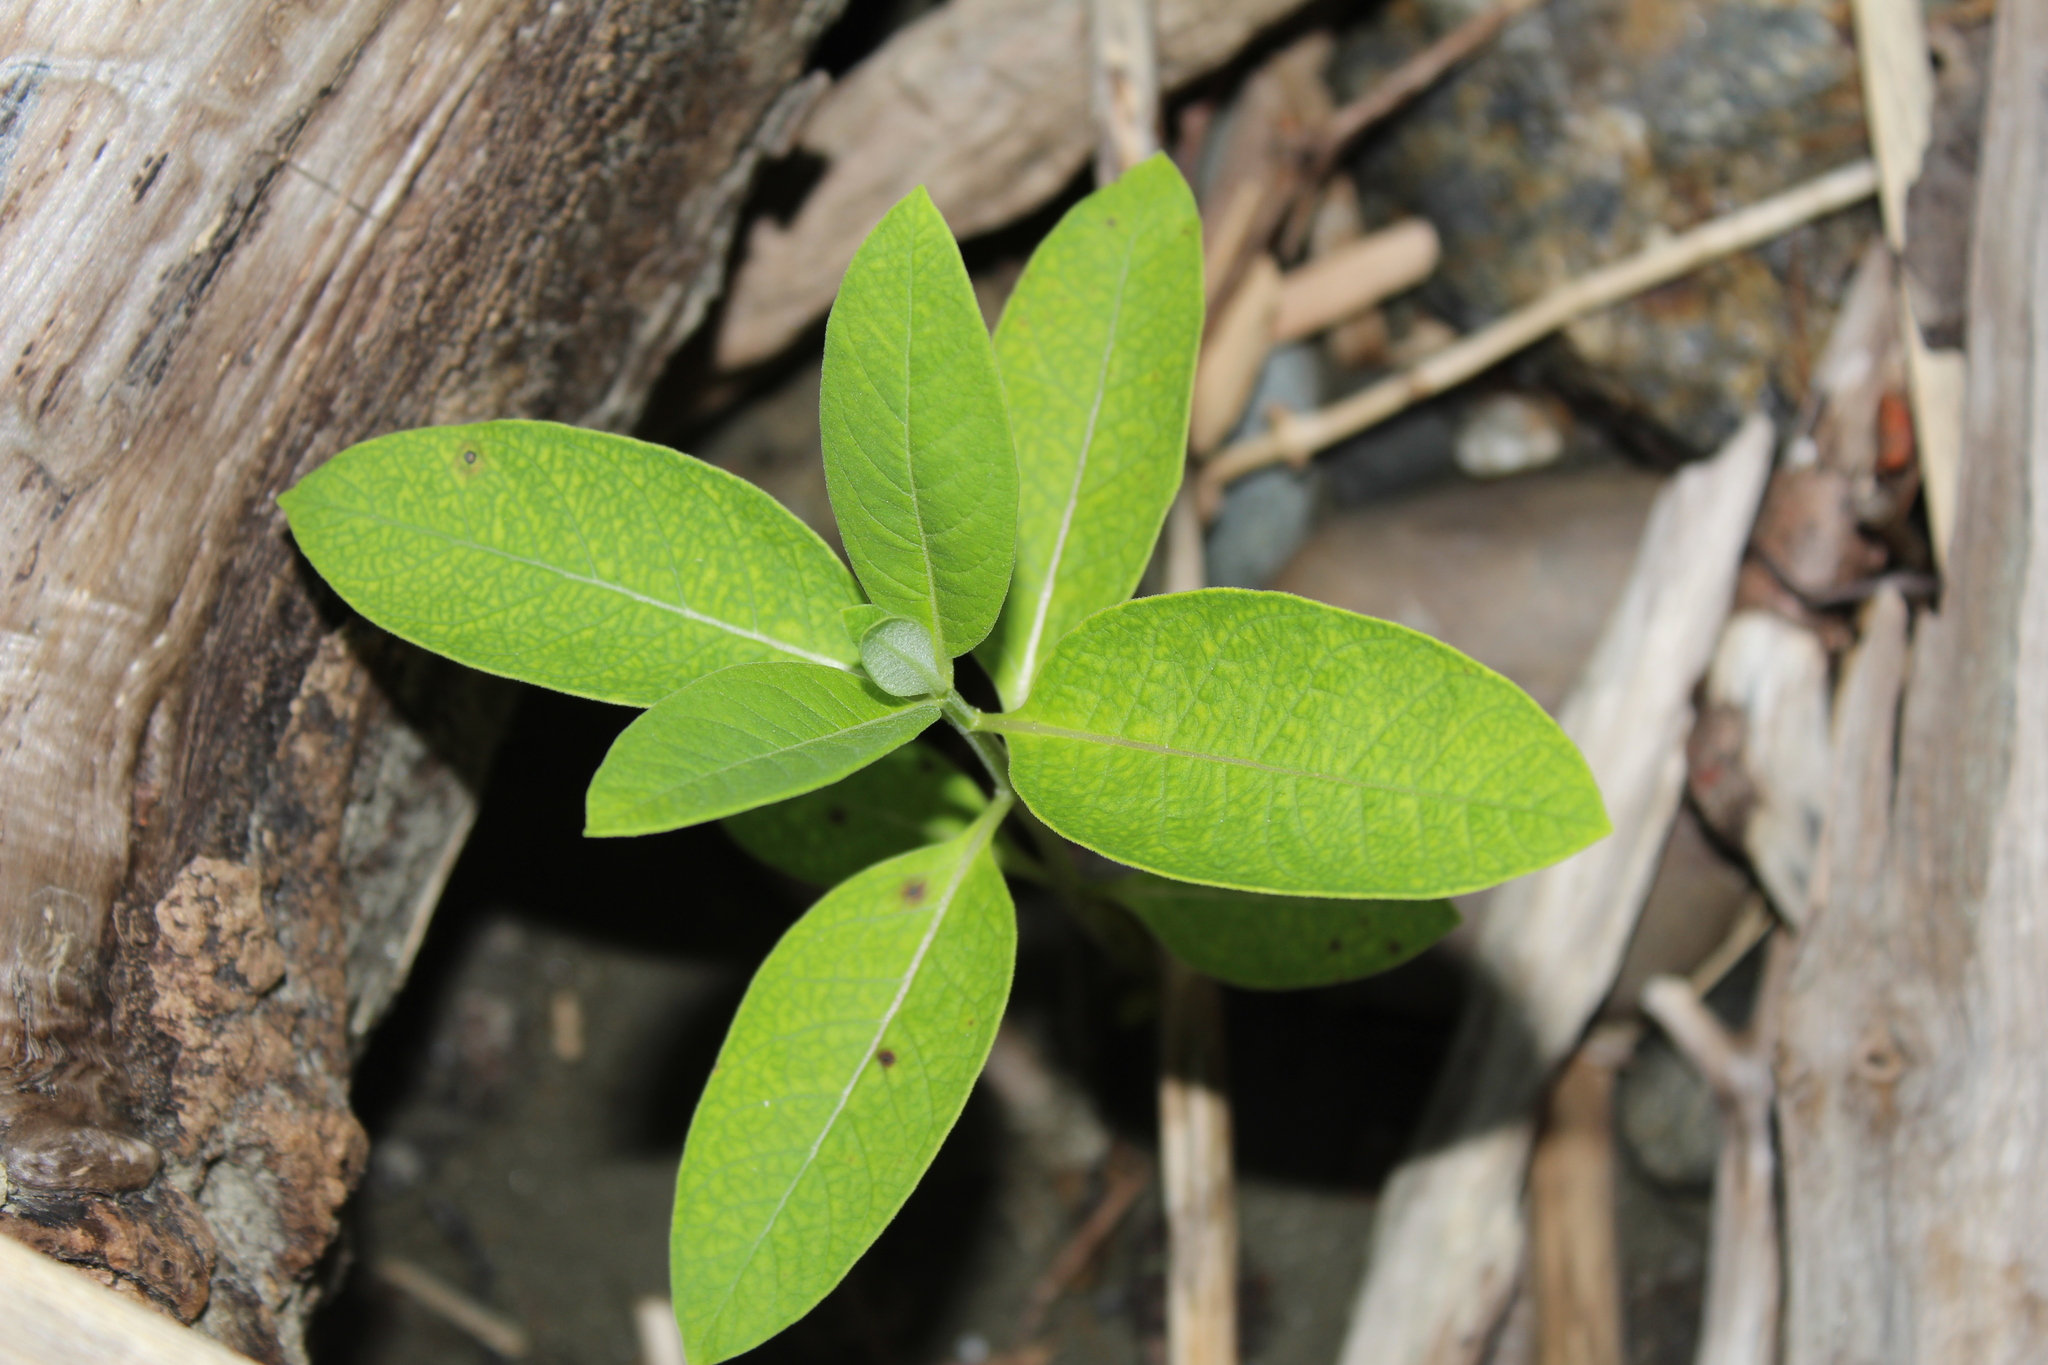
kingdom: Plantae
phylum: Tracheophyta
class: Magnoliopsida
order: Gentianales
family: Apocynaceae
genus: Asclepias
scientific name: Asclepias syriaca
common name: Common milkweed
